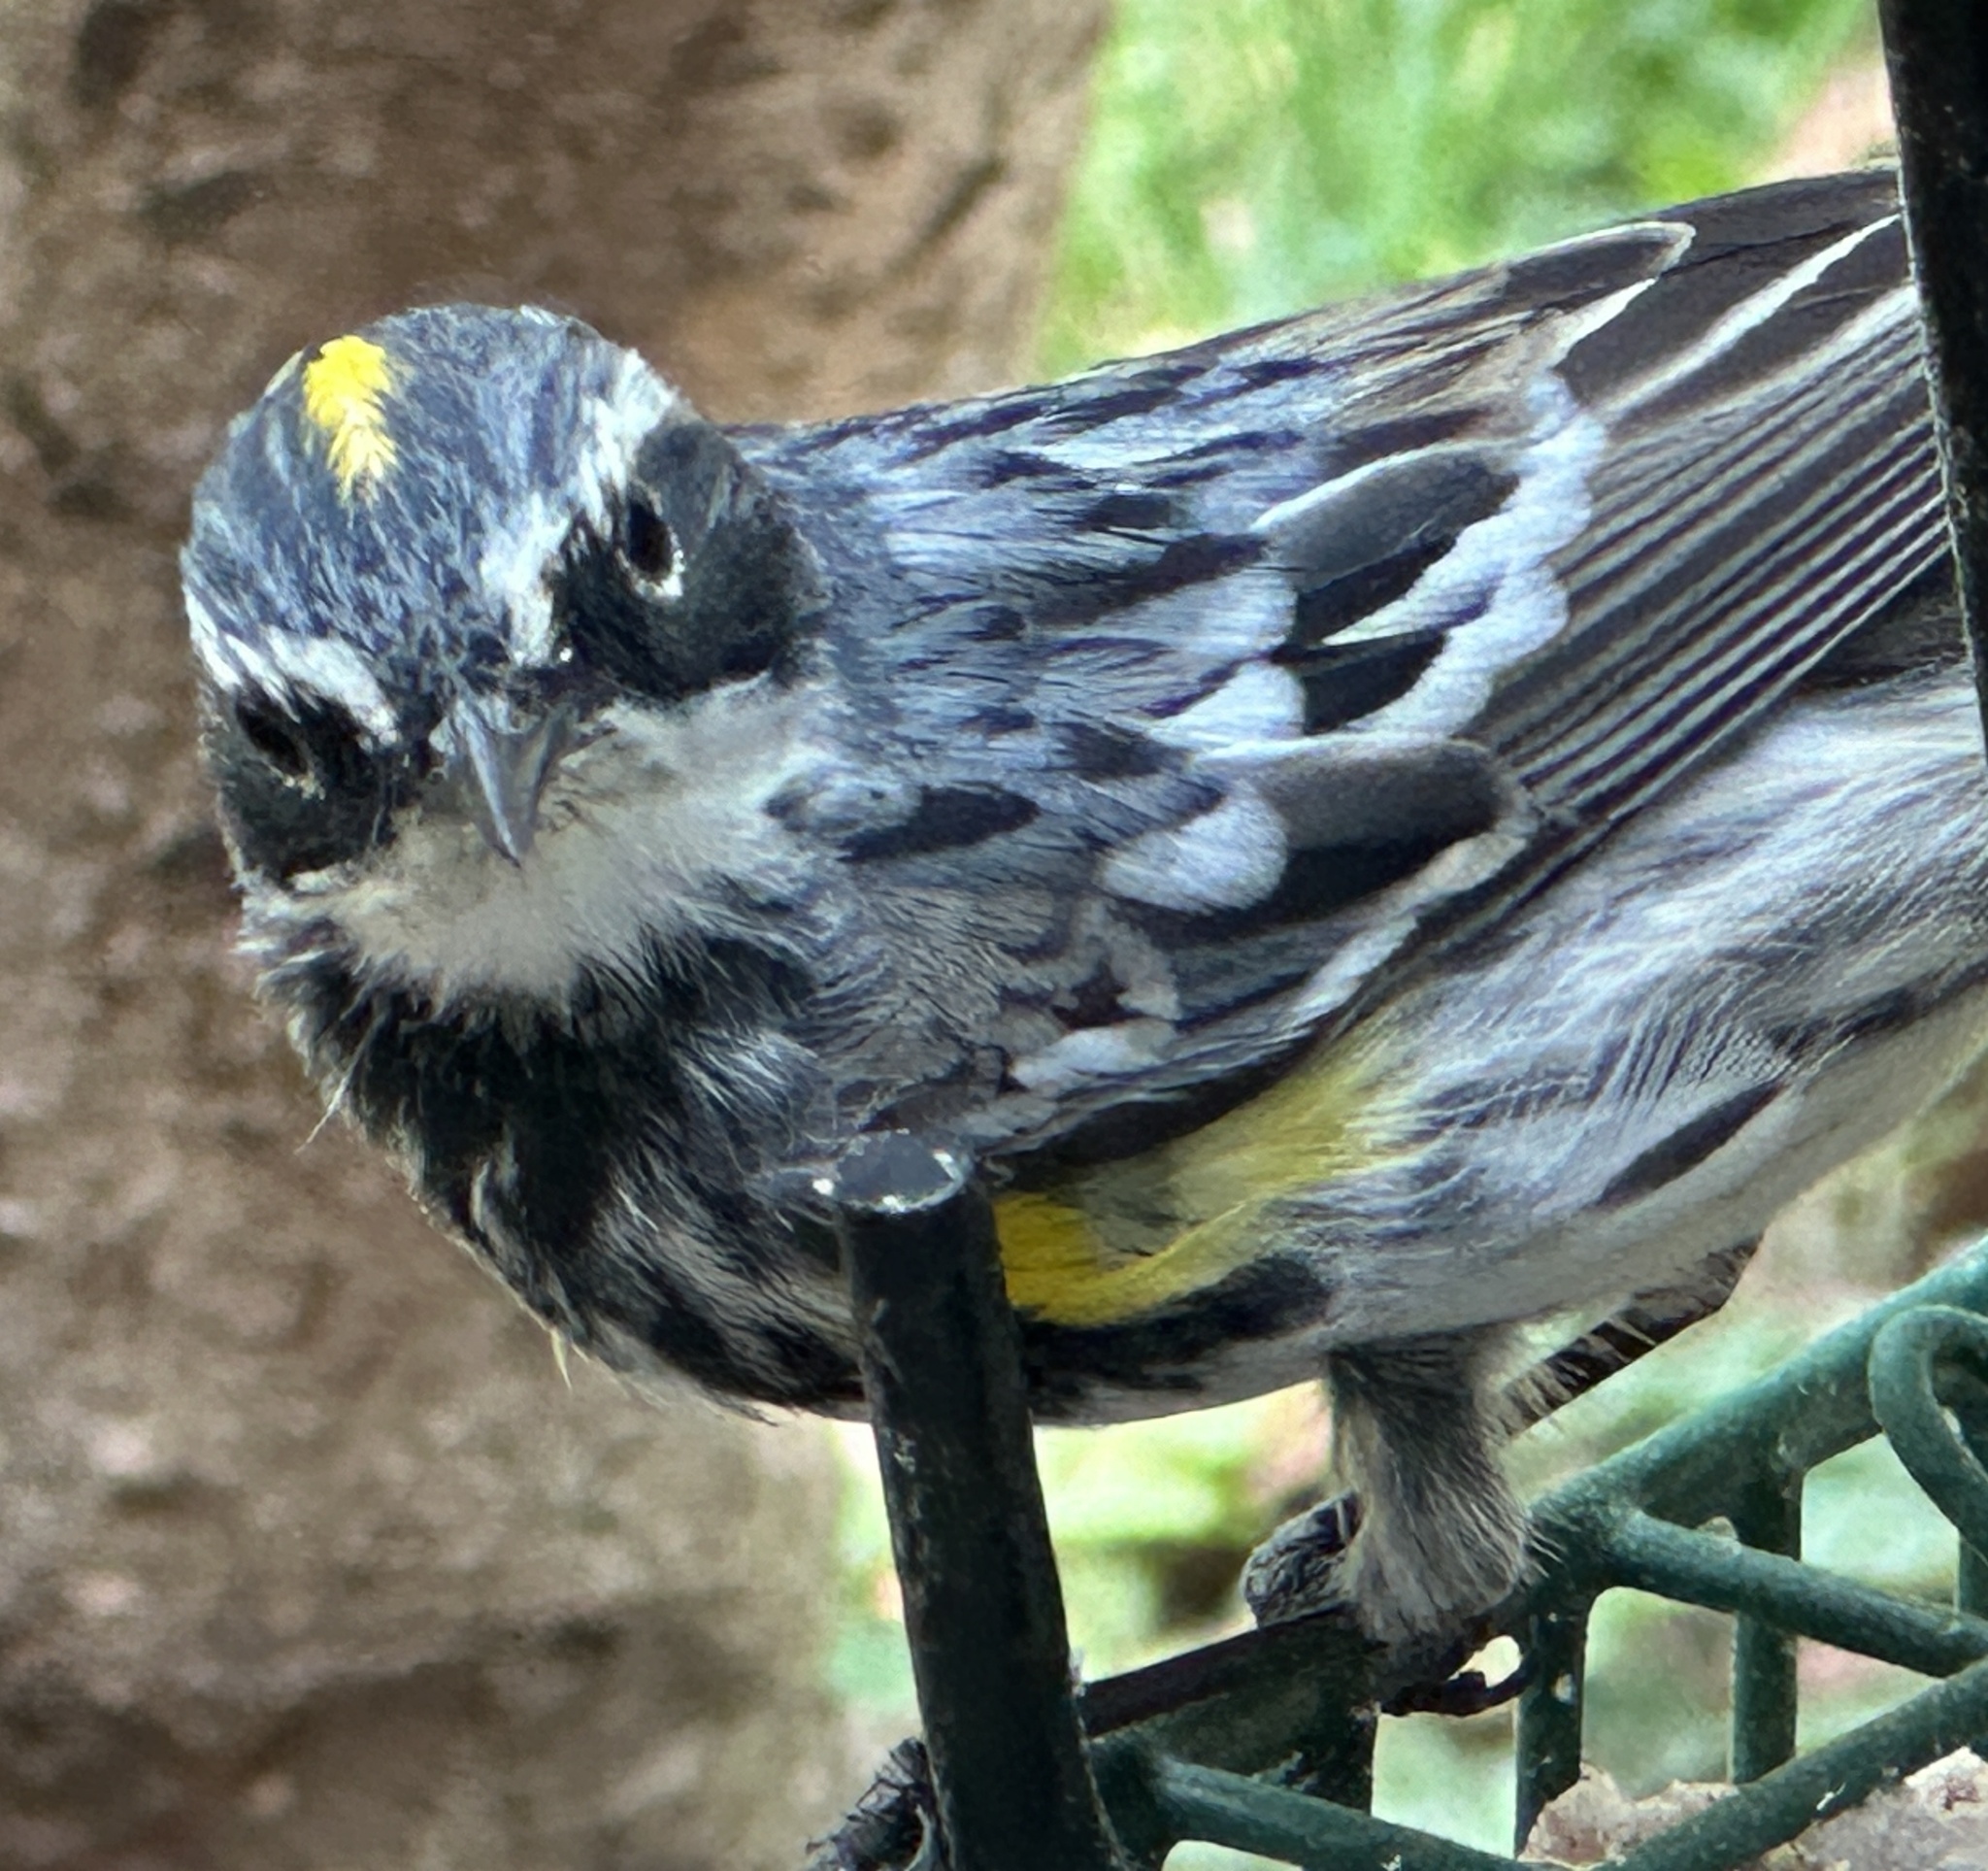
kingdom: Animalia
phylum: Chordata
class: Aves
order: Passeriformes
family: Parulidae
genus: Setophaga
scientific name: Setophaga coronata
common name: Myrtle warbler
